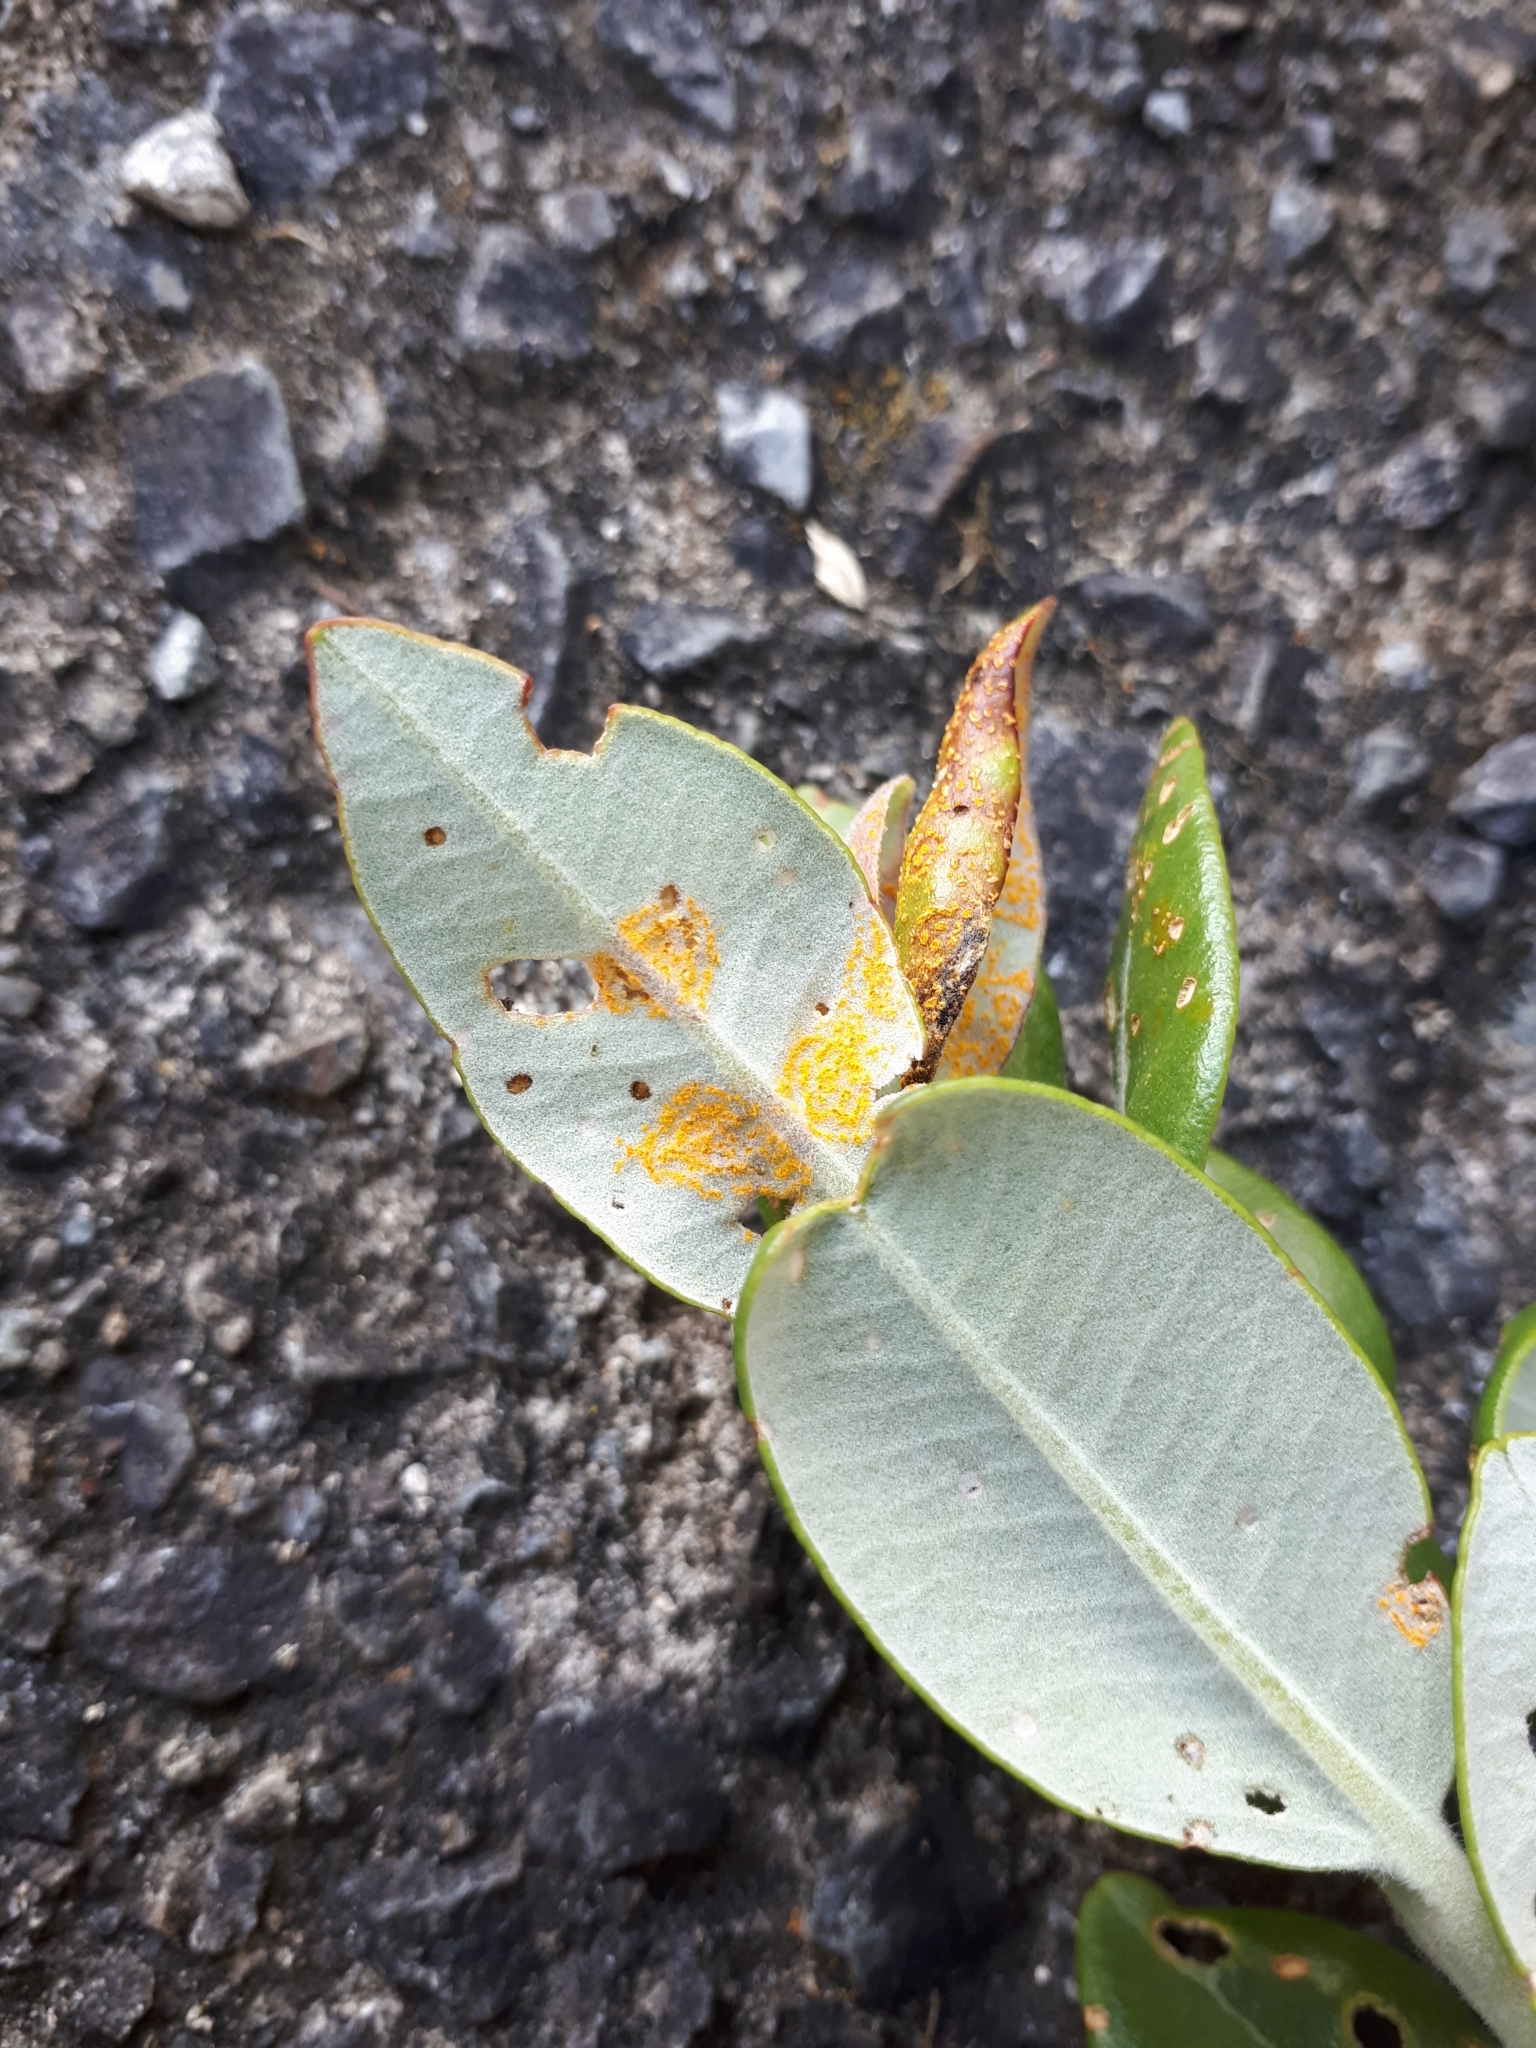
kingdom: Fungi
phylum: Basidiomycota
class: Pucciniomycetes
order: Pucciniales
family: Sphaerophragmiaceae
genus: Austropuccinia
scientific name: Austropuccinia psidii
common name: Myrtle rust
